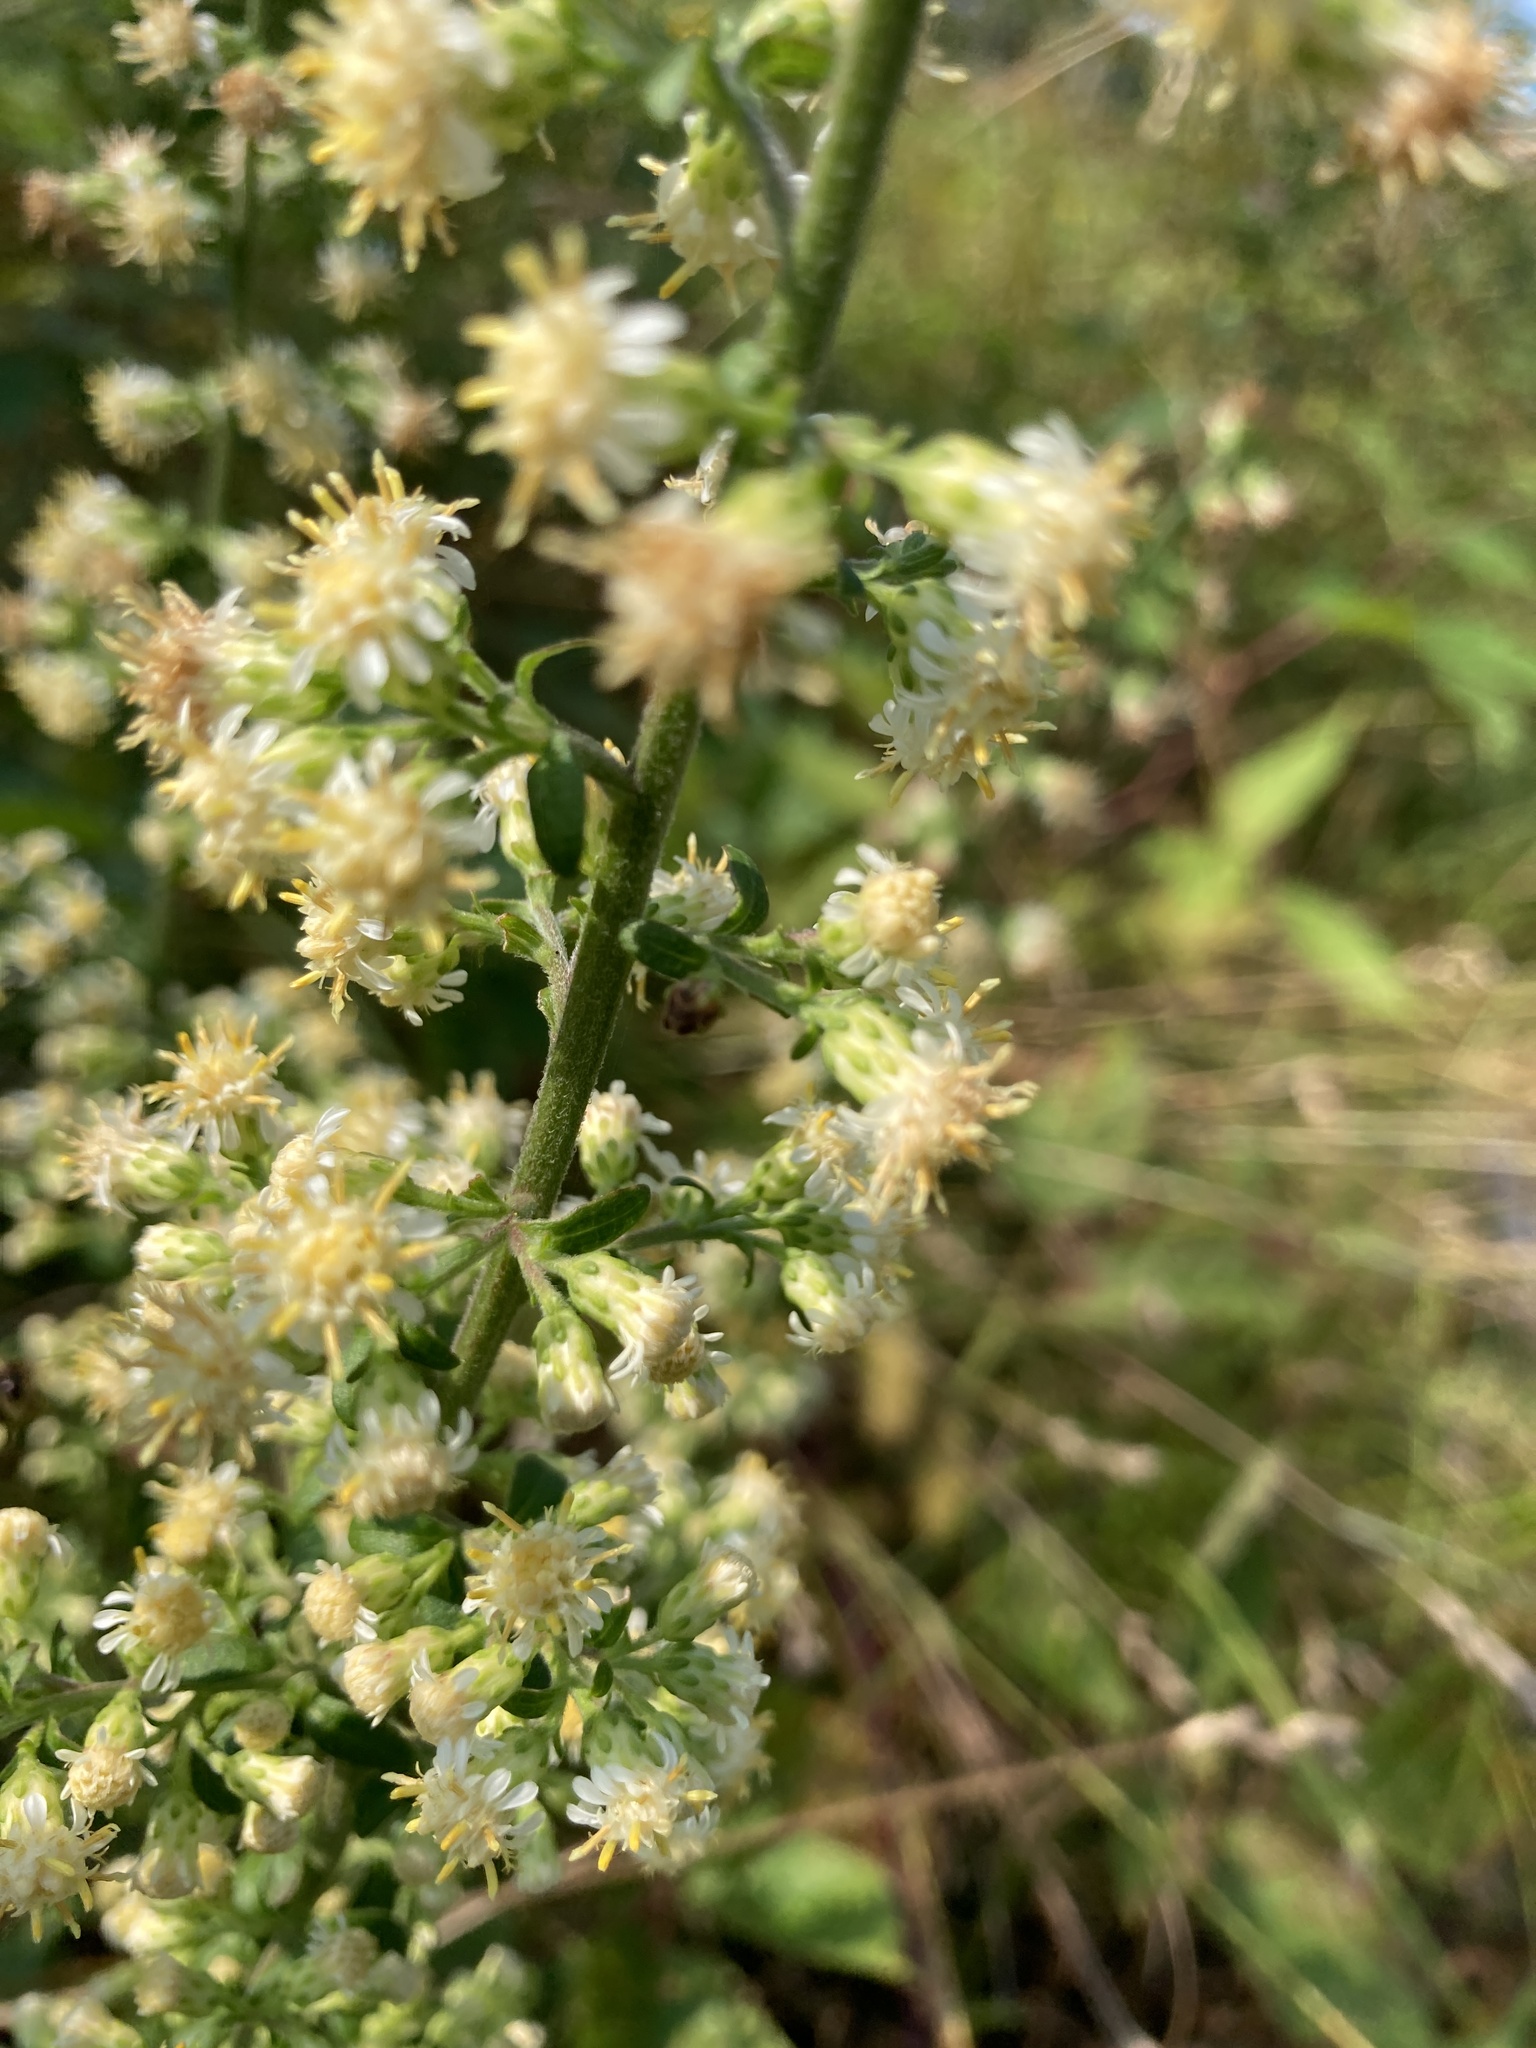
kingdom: Plantae
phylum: Tracheophyta
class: Magnoliopsida
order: Asterales
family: Asteraceae
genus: Solidago
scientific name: Solidago bicolor
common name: Silverrod
